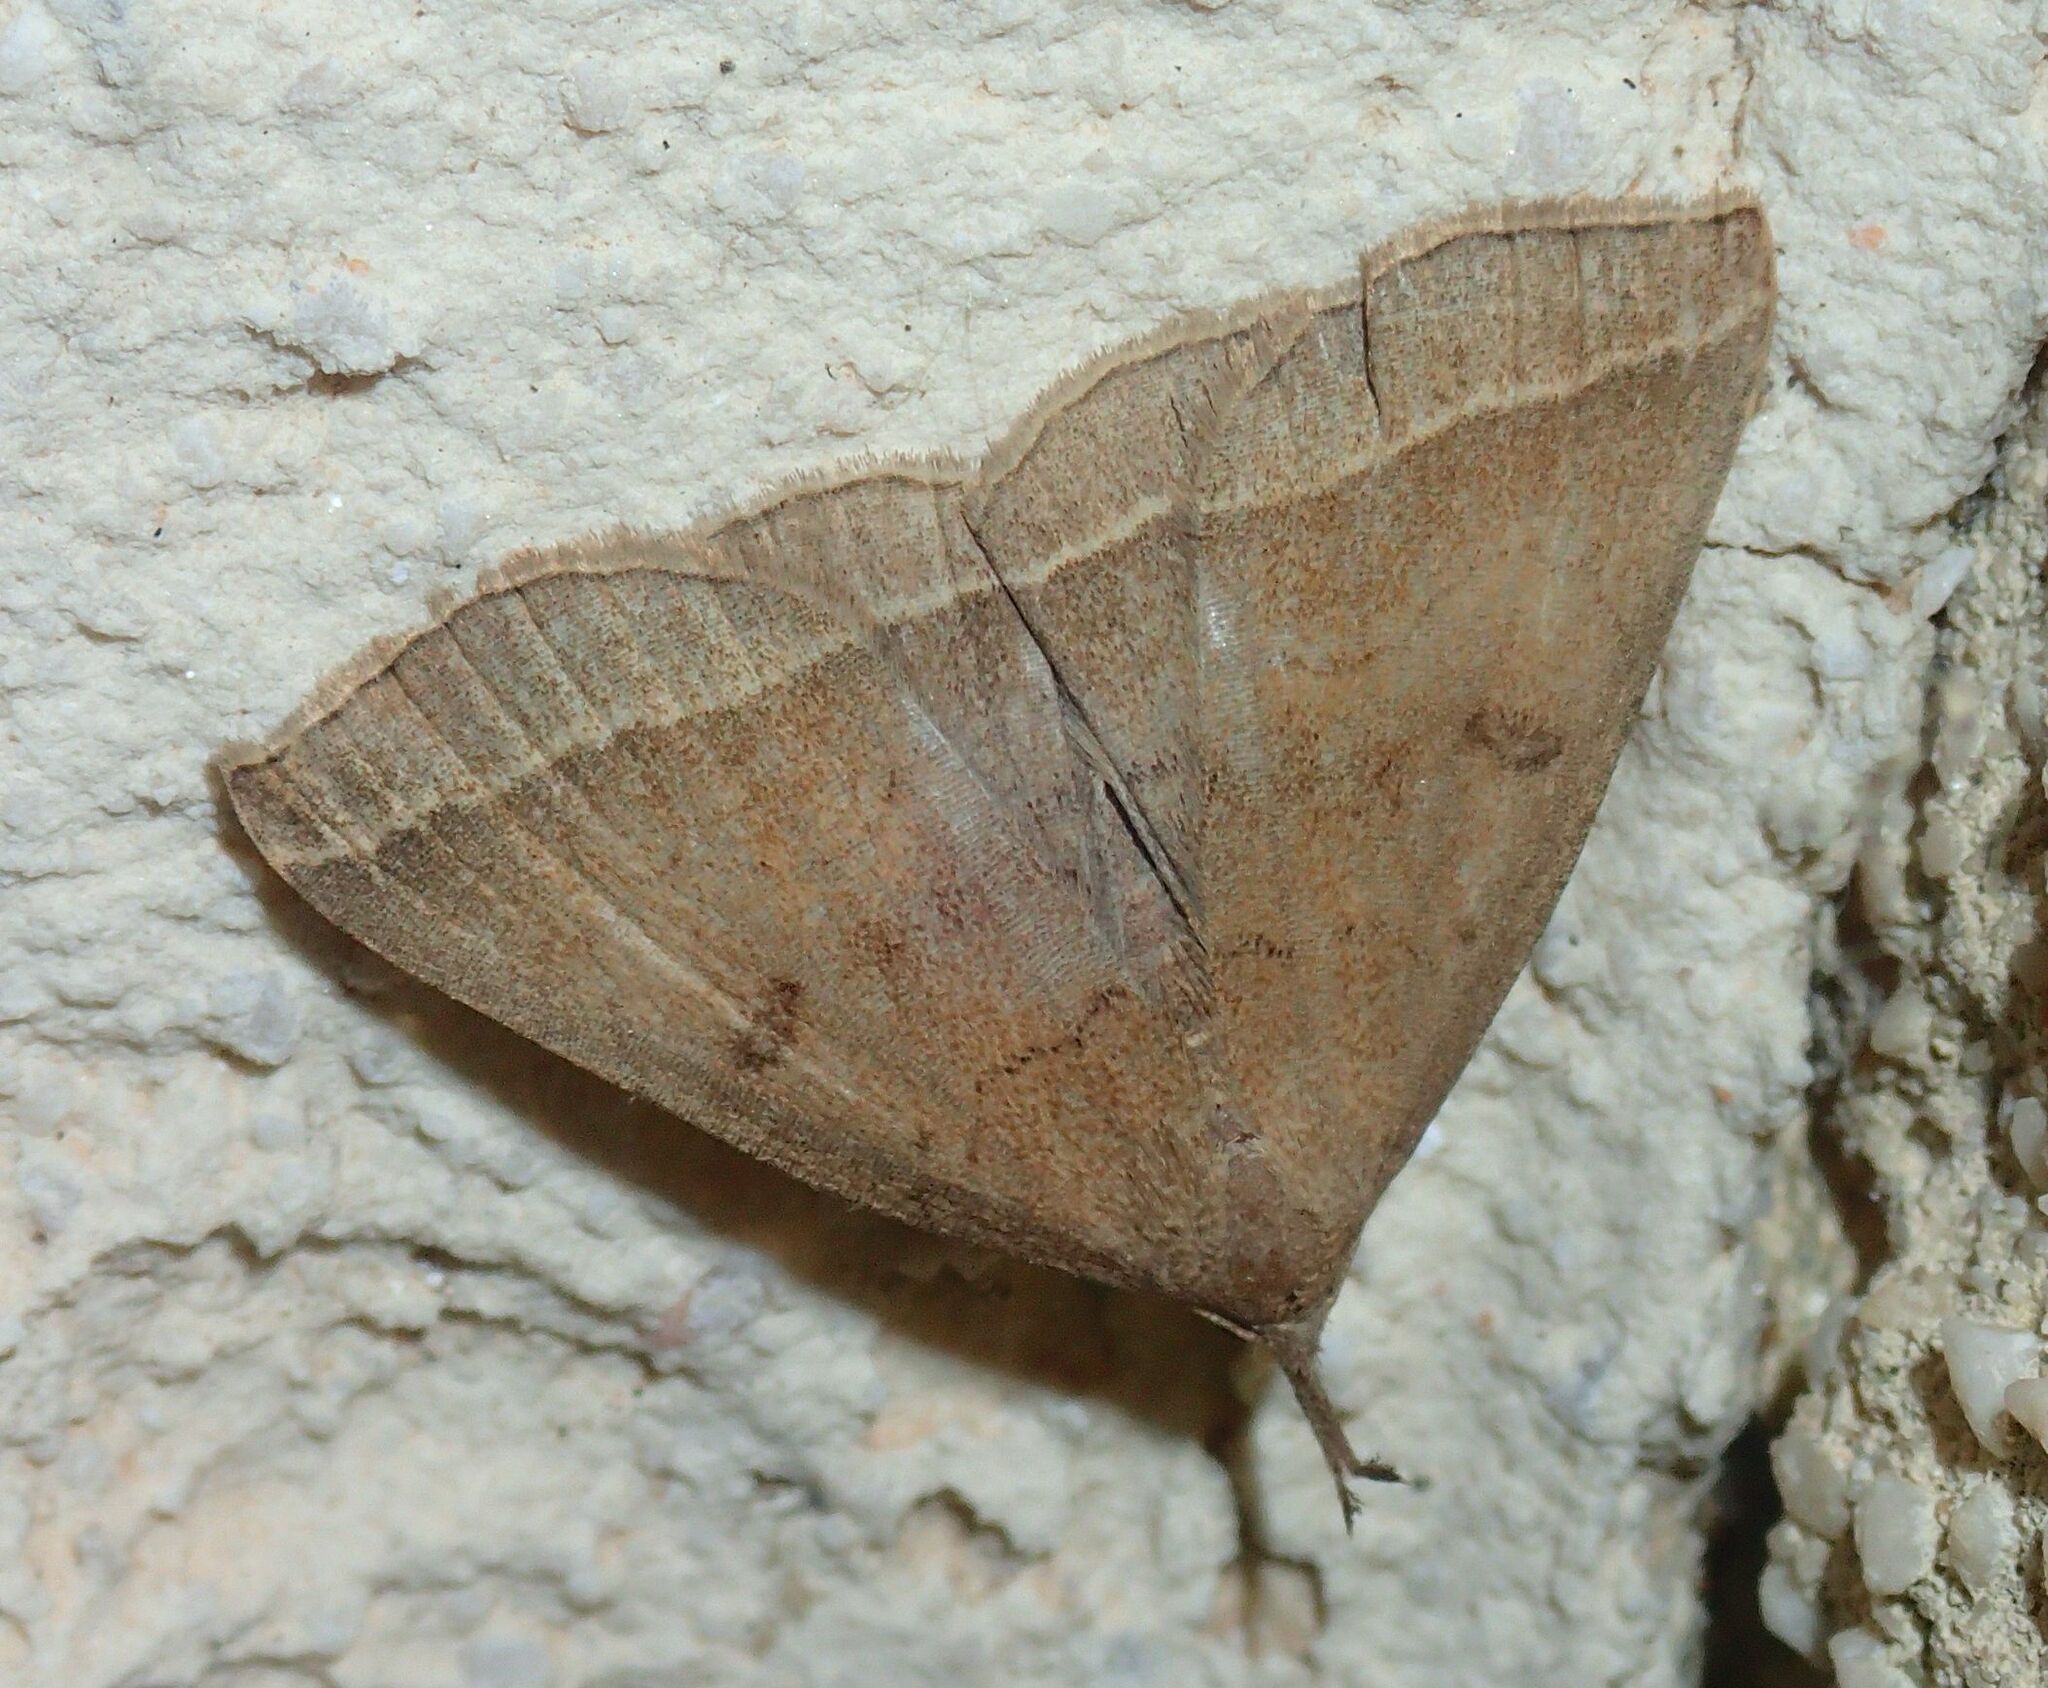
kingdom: Animalia
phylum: Arthropoda
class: Insecta
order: Lepidoptera
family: Erebidae
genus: Pechipogo
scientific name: Pechipogo plumigeralis
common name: Plumed fan-foot
